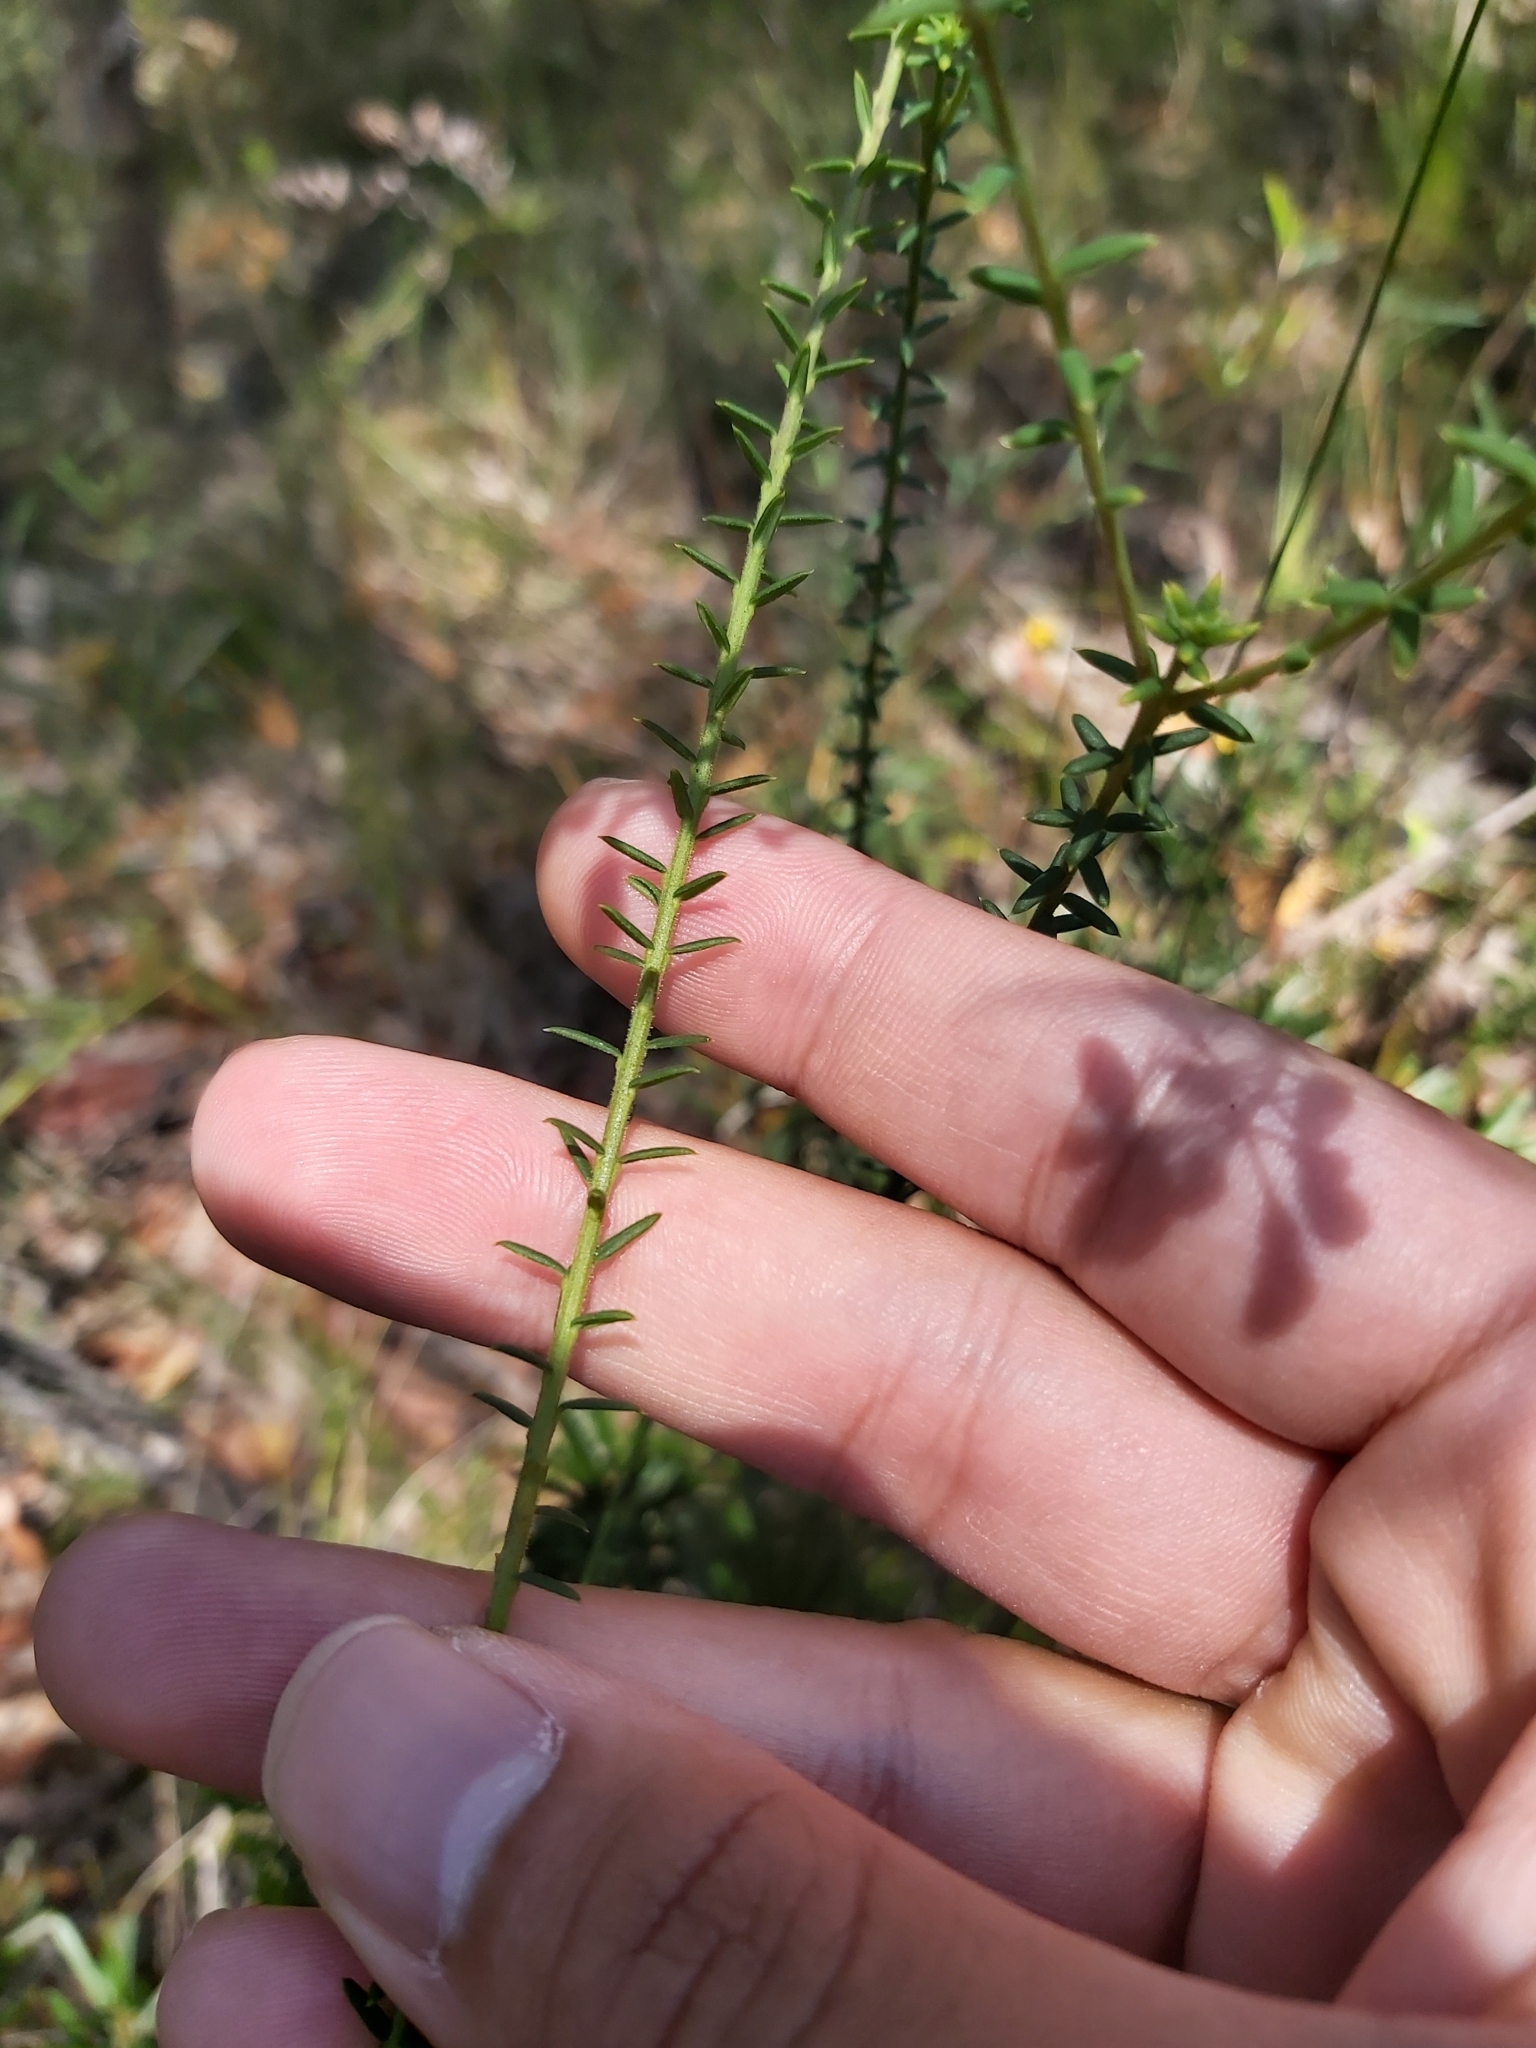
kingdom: Plantae
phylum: Tracheophyta
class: Magnoliopsida
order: Fabales
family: Polygalaceae
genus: Comesperma
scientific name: Comesperma ericinum
